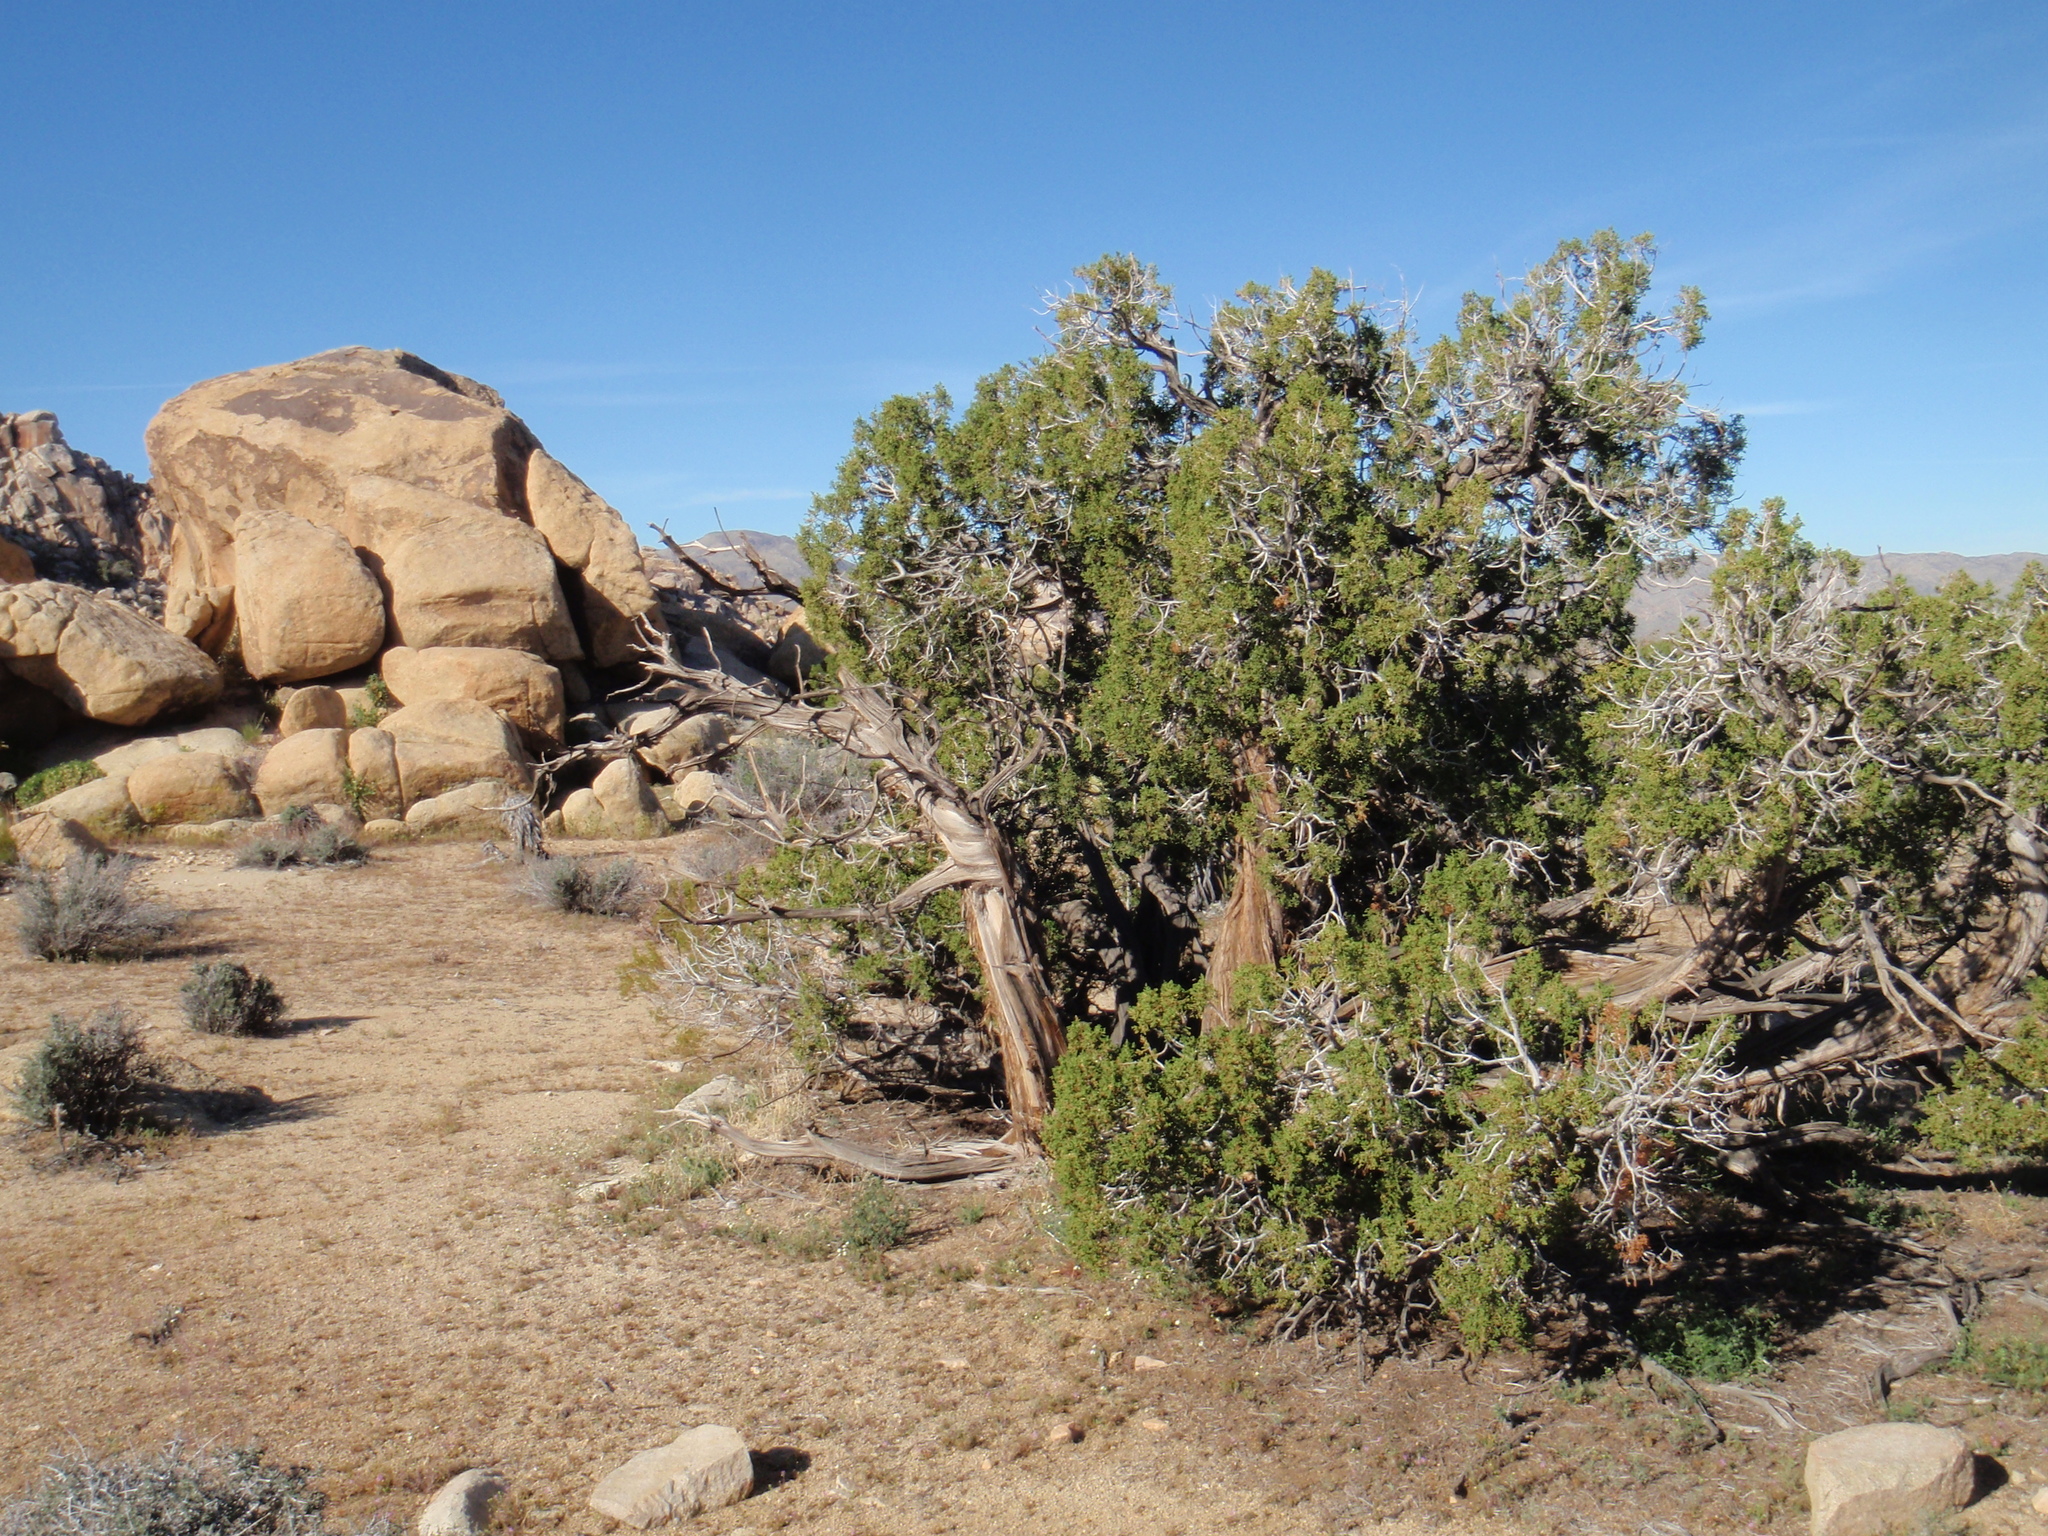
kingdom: Plantae
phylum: Tracheophyta
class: Pinopsida
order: Pinales
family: Cupressaceae
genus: Juniperus
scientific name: Juniperus californica
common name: California juniper
